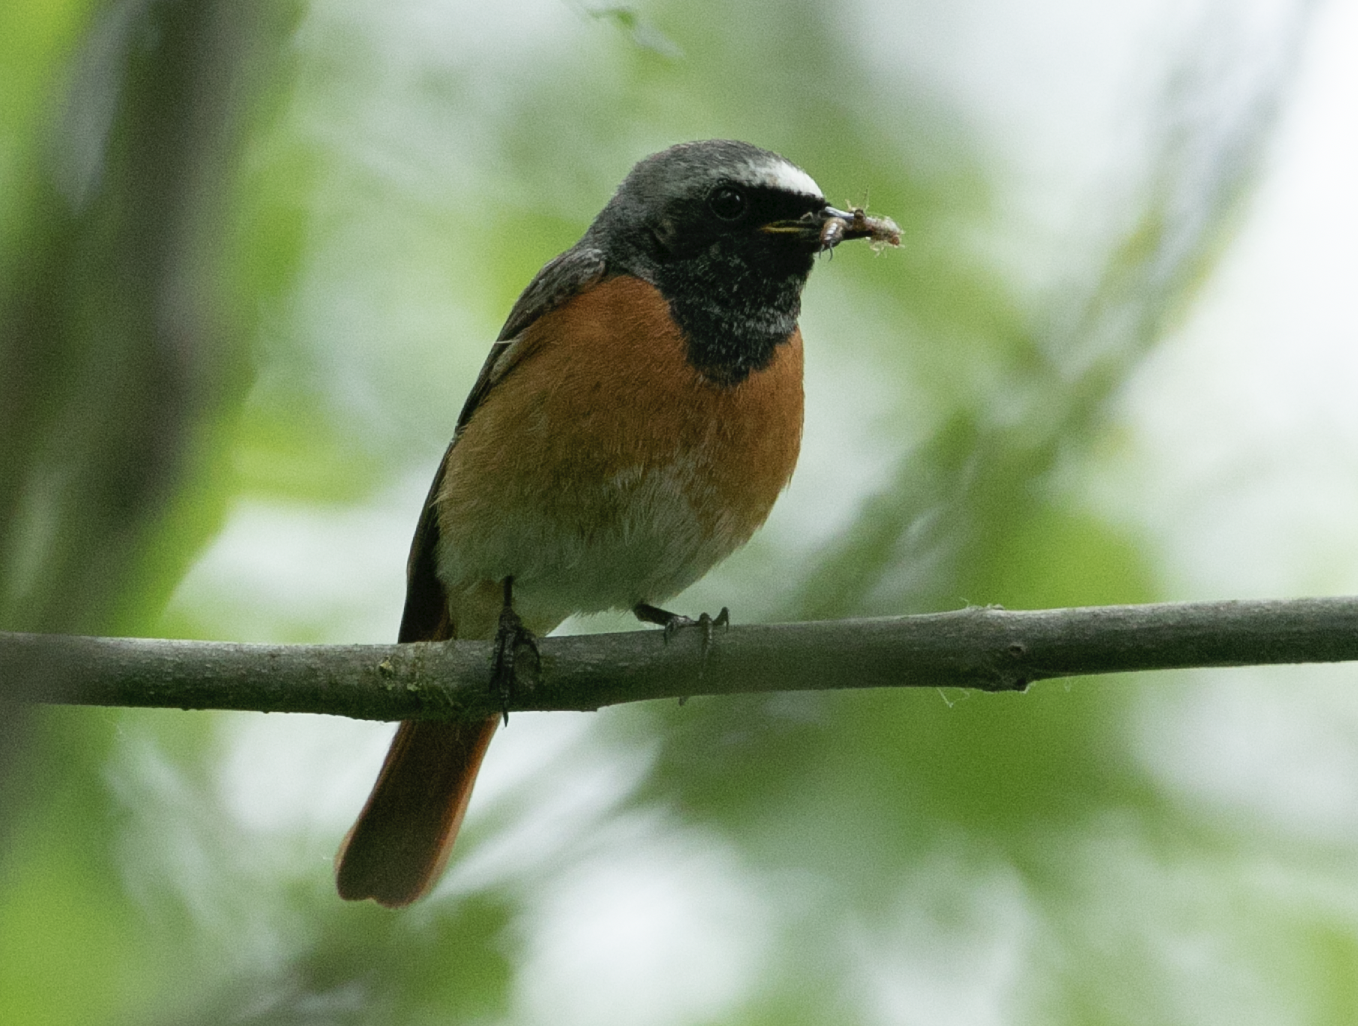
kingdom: Animalia
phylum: Chordata
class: Aves
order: Passeriformes
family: Muscicapidae
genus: Phoenicurus
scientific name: Phoenicurus phoenicurus
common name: Common redstart
